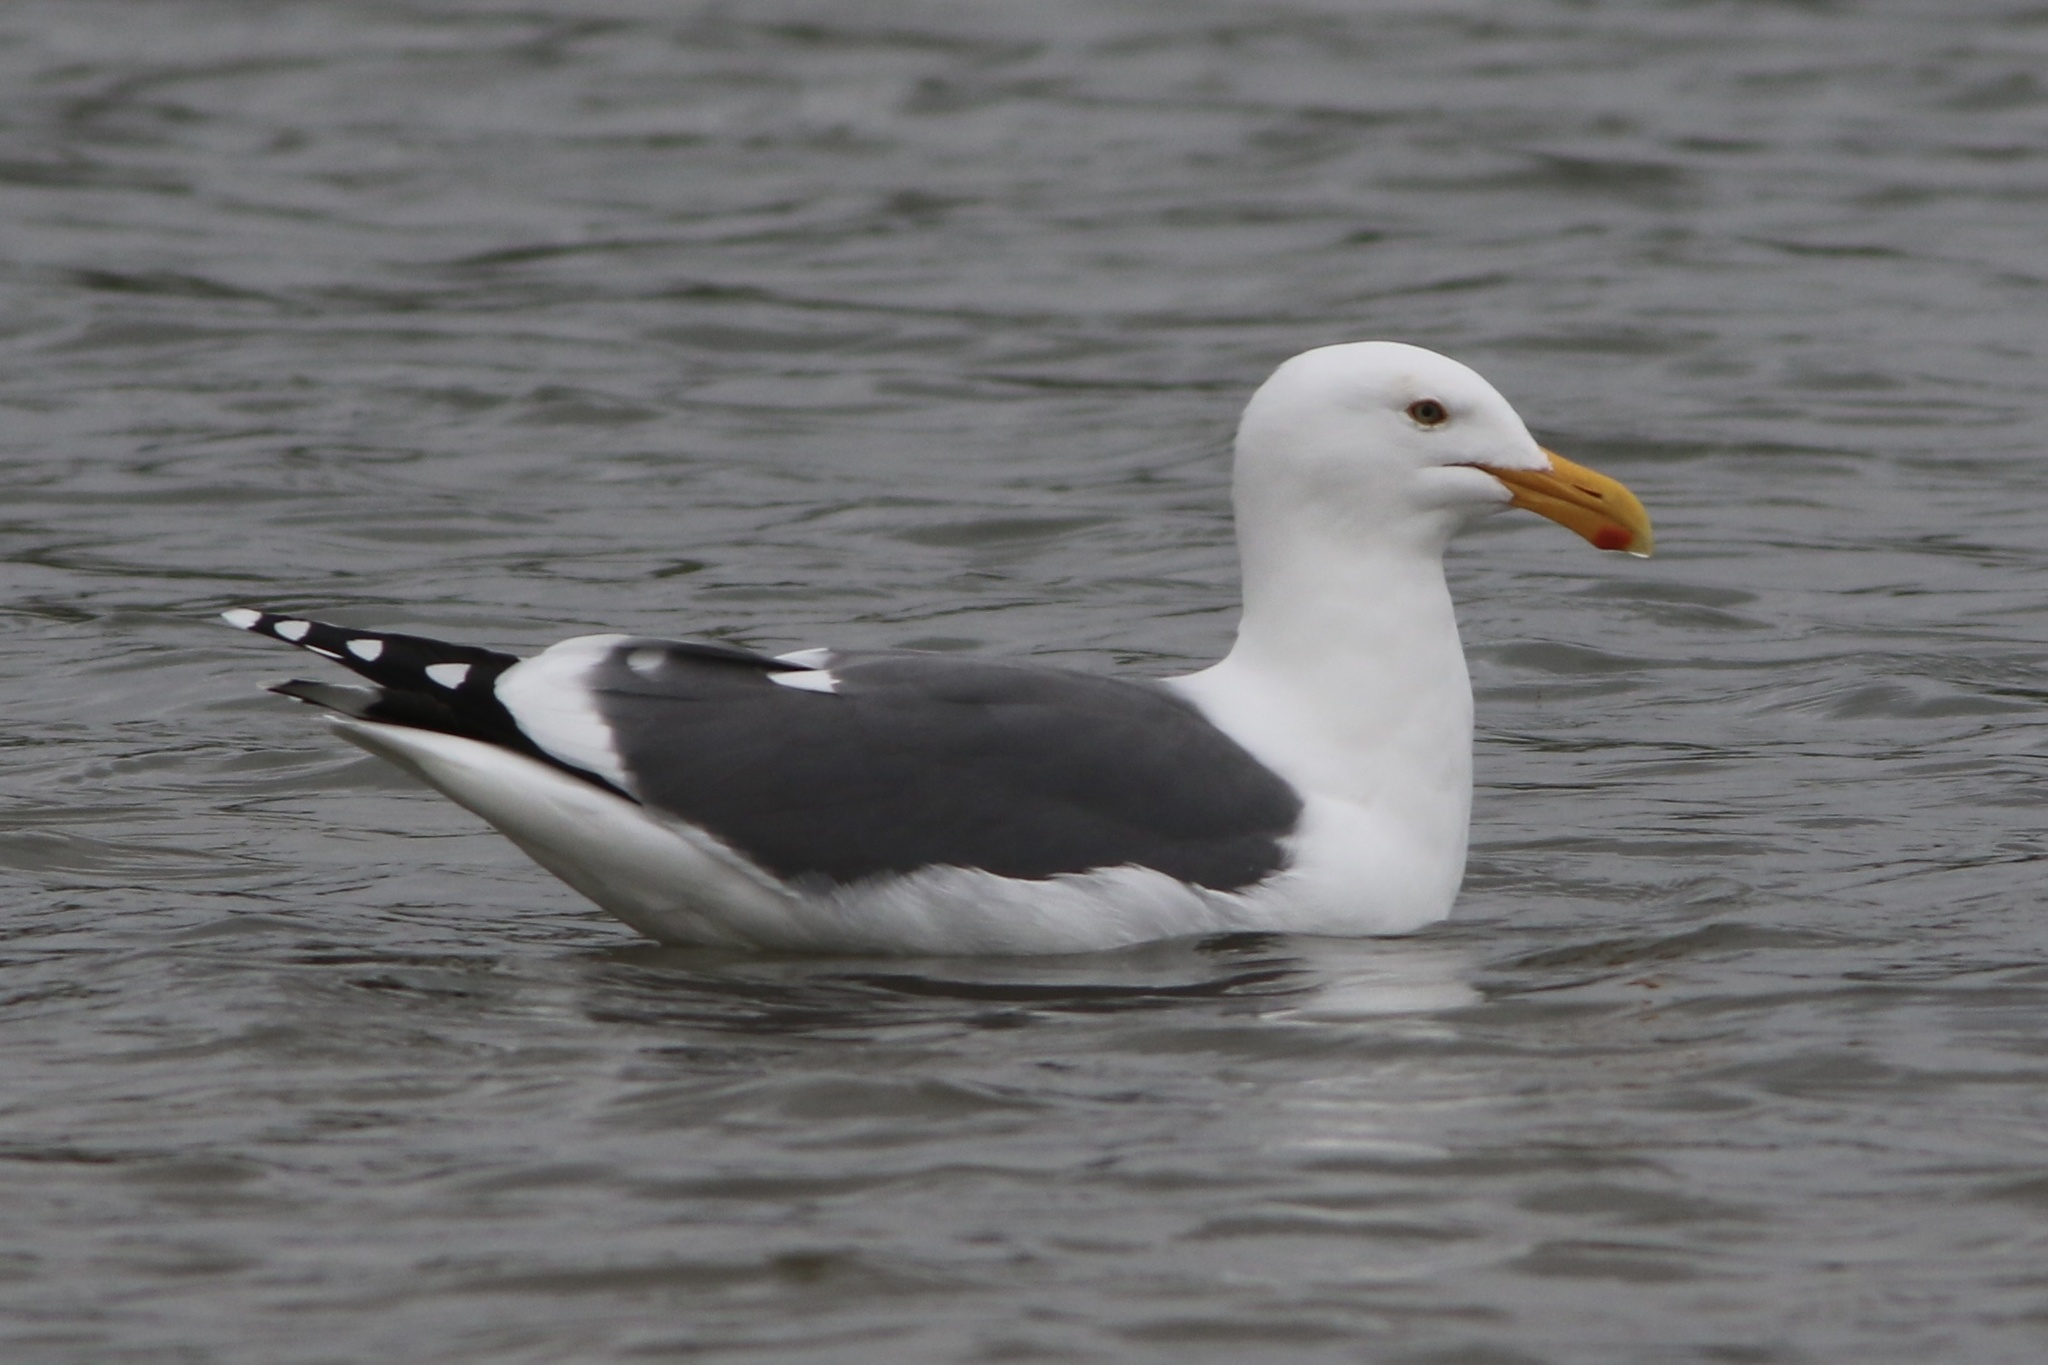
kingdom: Animalia
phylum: Chordata
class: Aves
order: Charadriiformes
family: Laridae
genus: Larus
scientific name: Larus occidentalis
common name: Western gull
